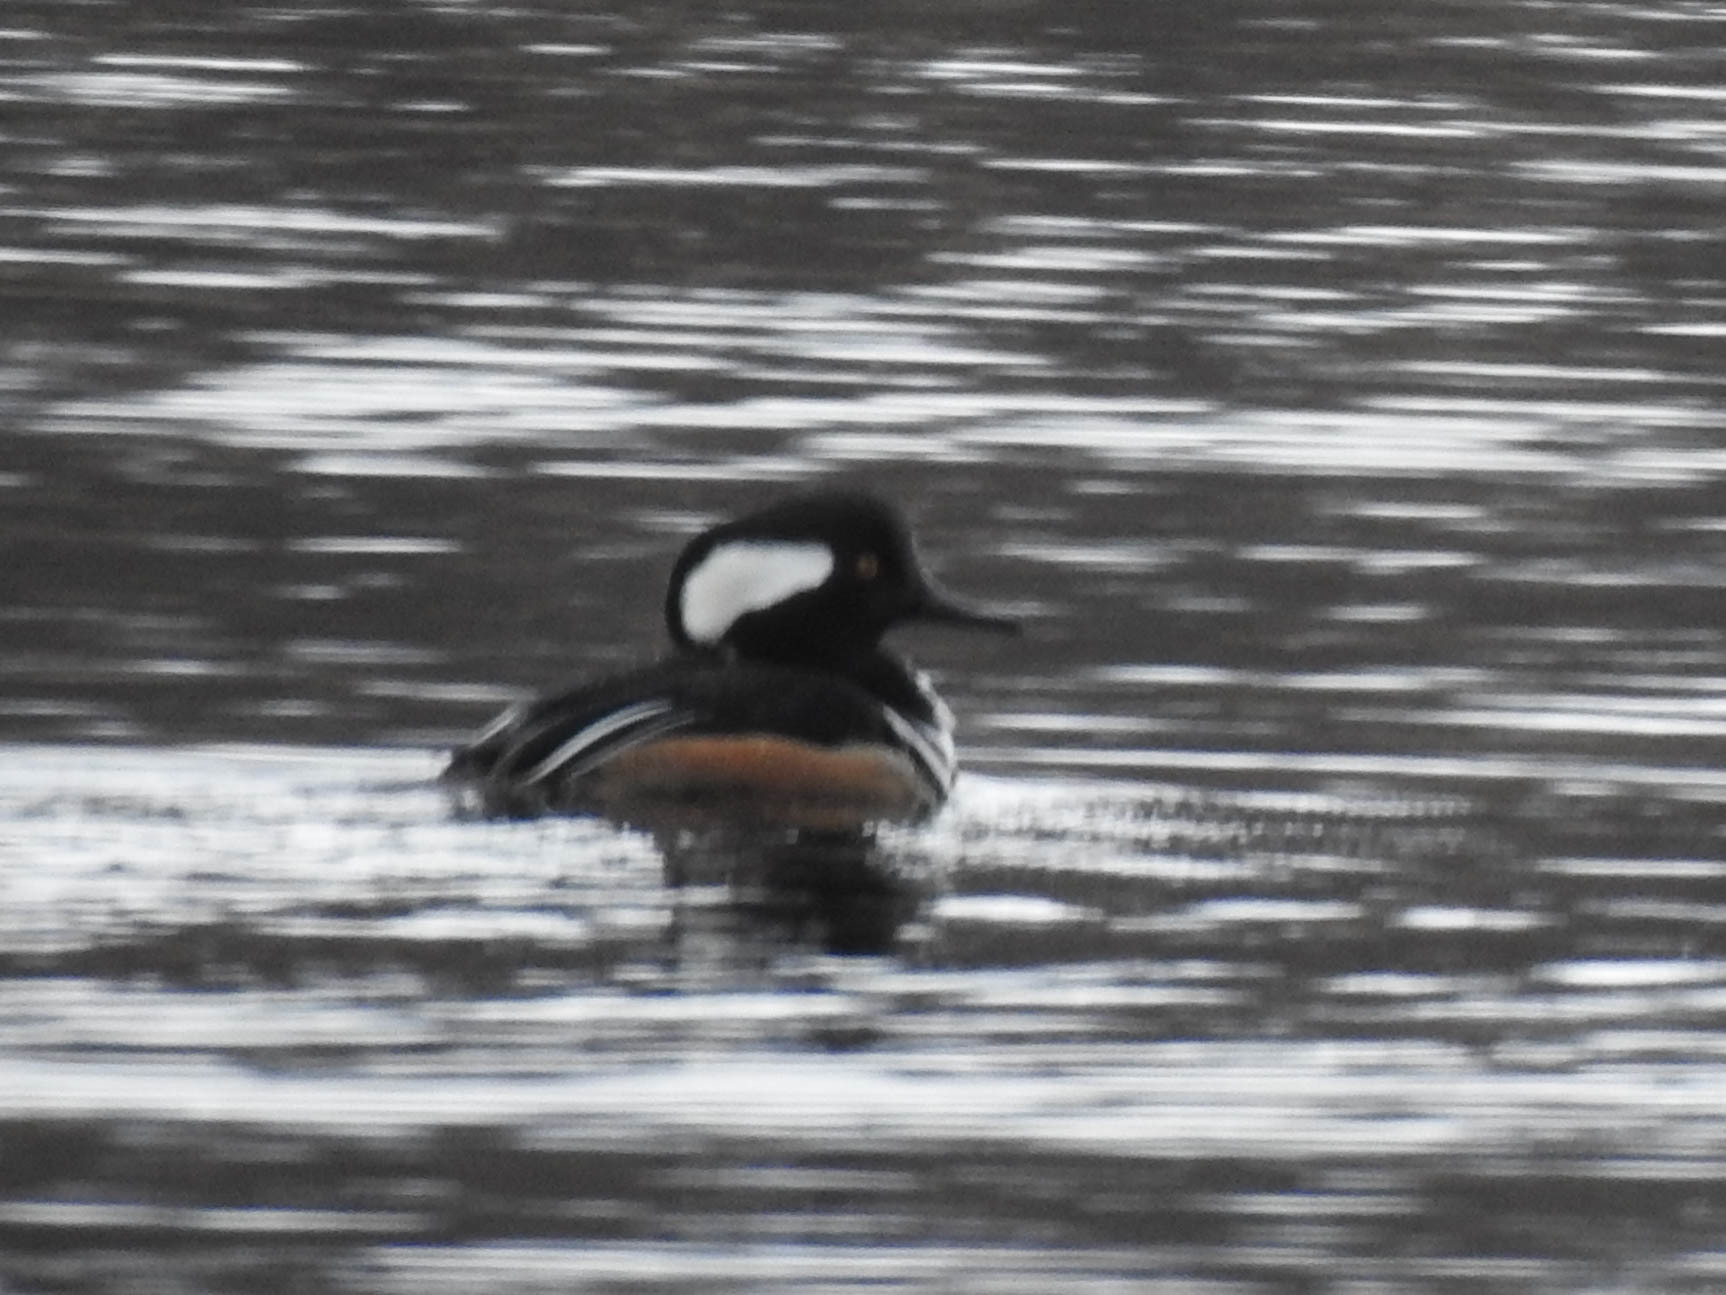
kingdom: Animalia
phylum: Chordata
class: Aves
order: Anseriformes
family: Anatidae
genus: Lophodytes
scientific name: Lophodytes cucullatus
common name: Hooded merganser
